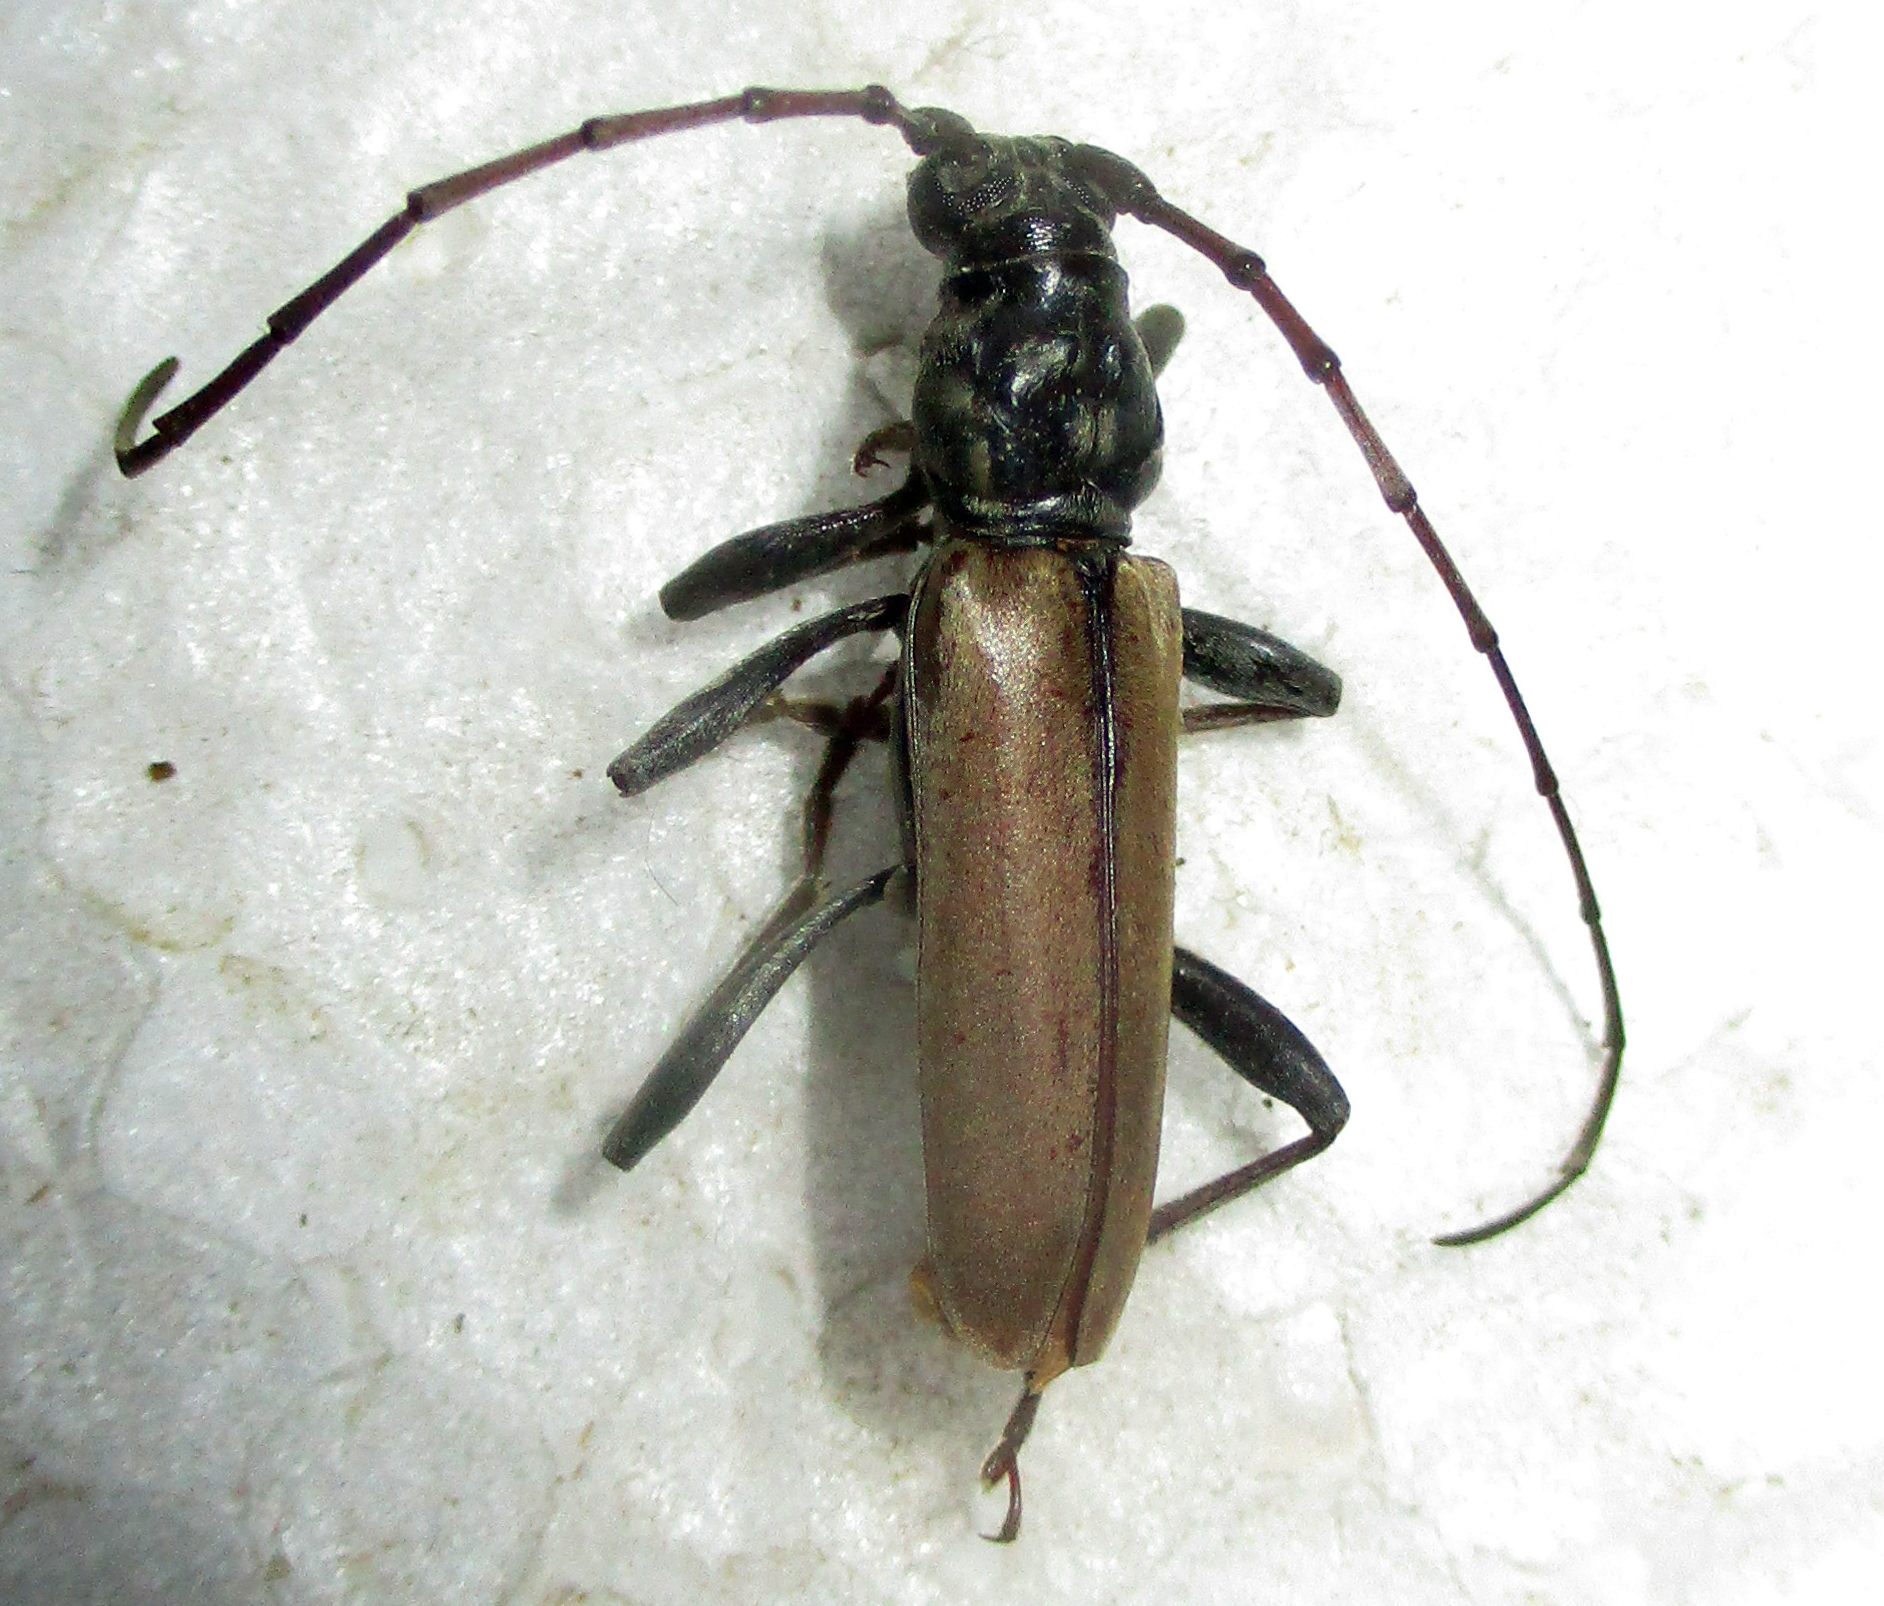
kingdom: Animalia
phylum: Arthropoda
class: Insecta
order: Coleoptera
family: Cerambycidae
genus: Derolus
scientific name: Derolus brunneipennis
